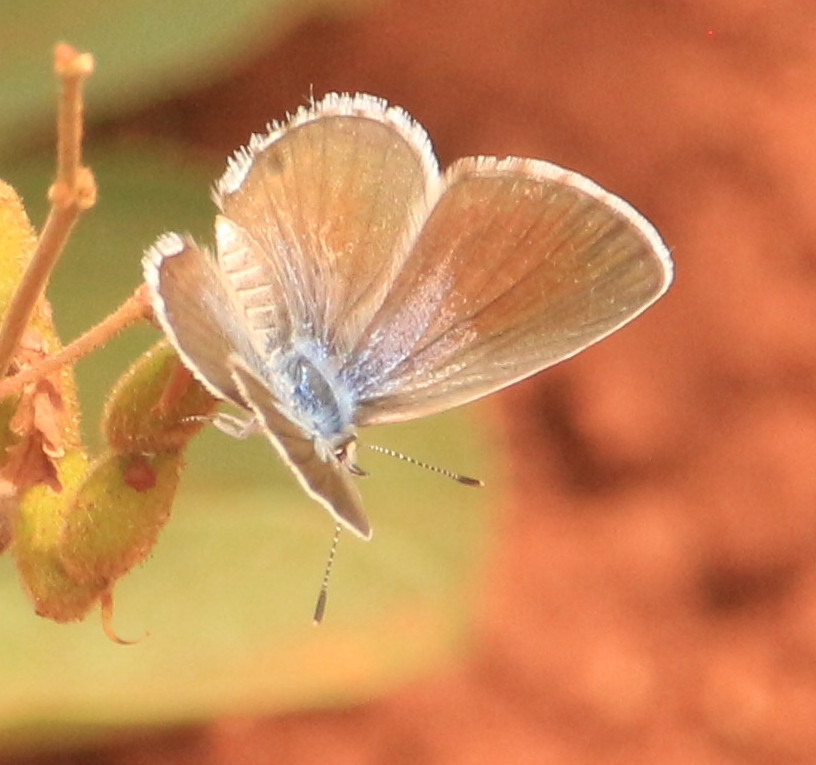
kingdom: Animalia
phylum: Arthropoda
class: Insecta
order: Lepidoptera
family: Lycaenidae
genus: Hemiargus
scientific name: Hemiargus hanno
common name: Common blue
